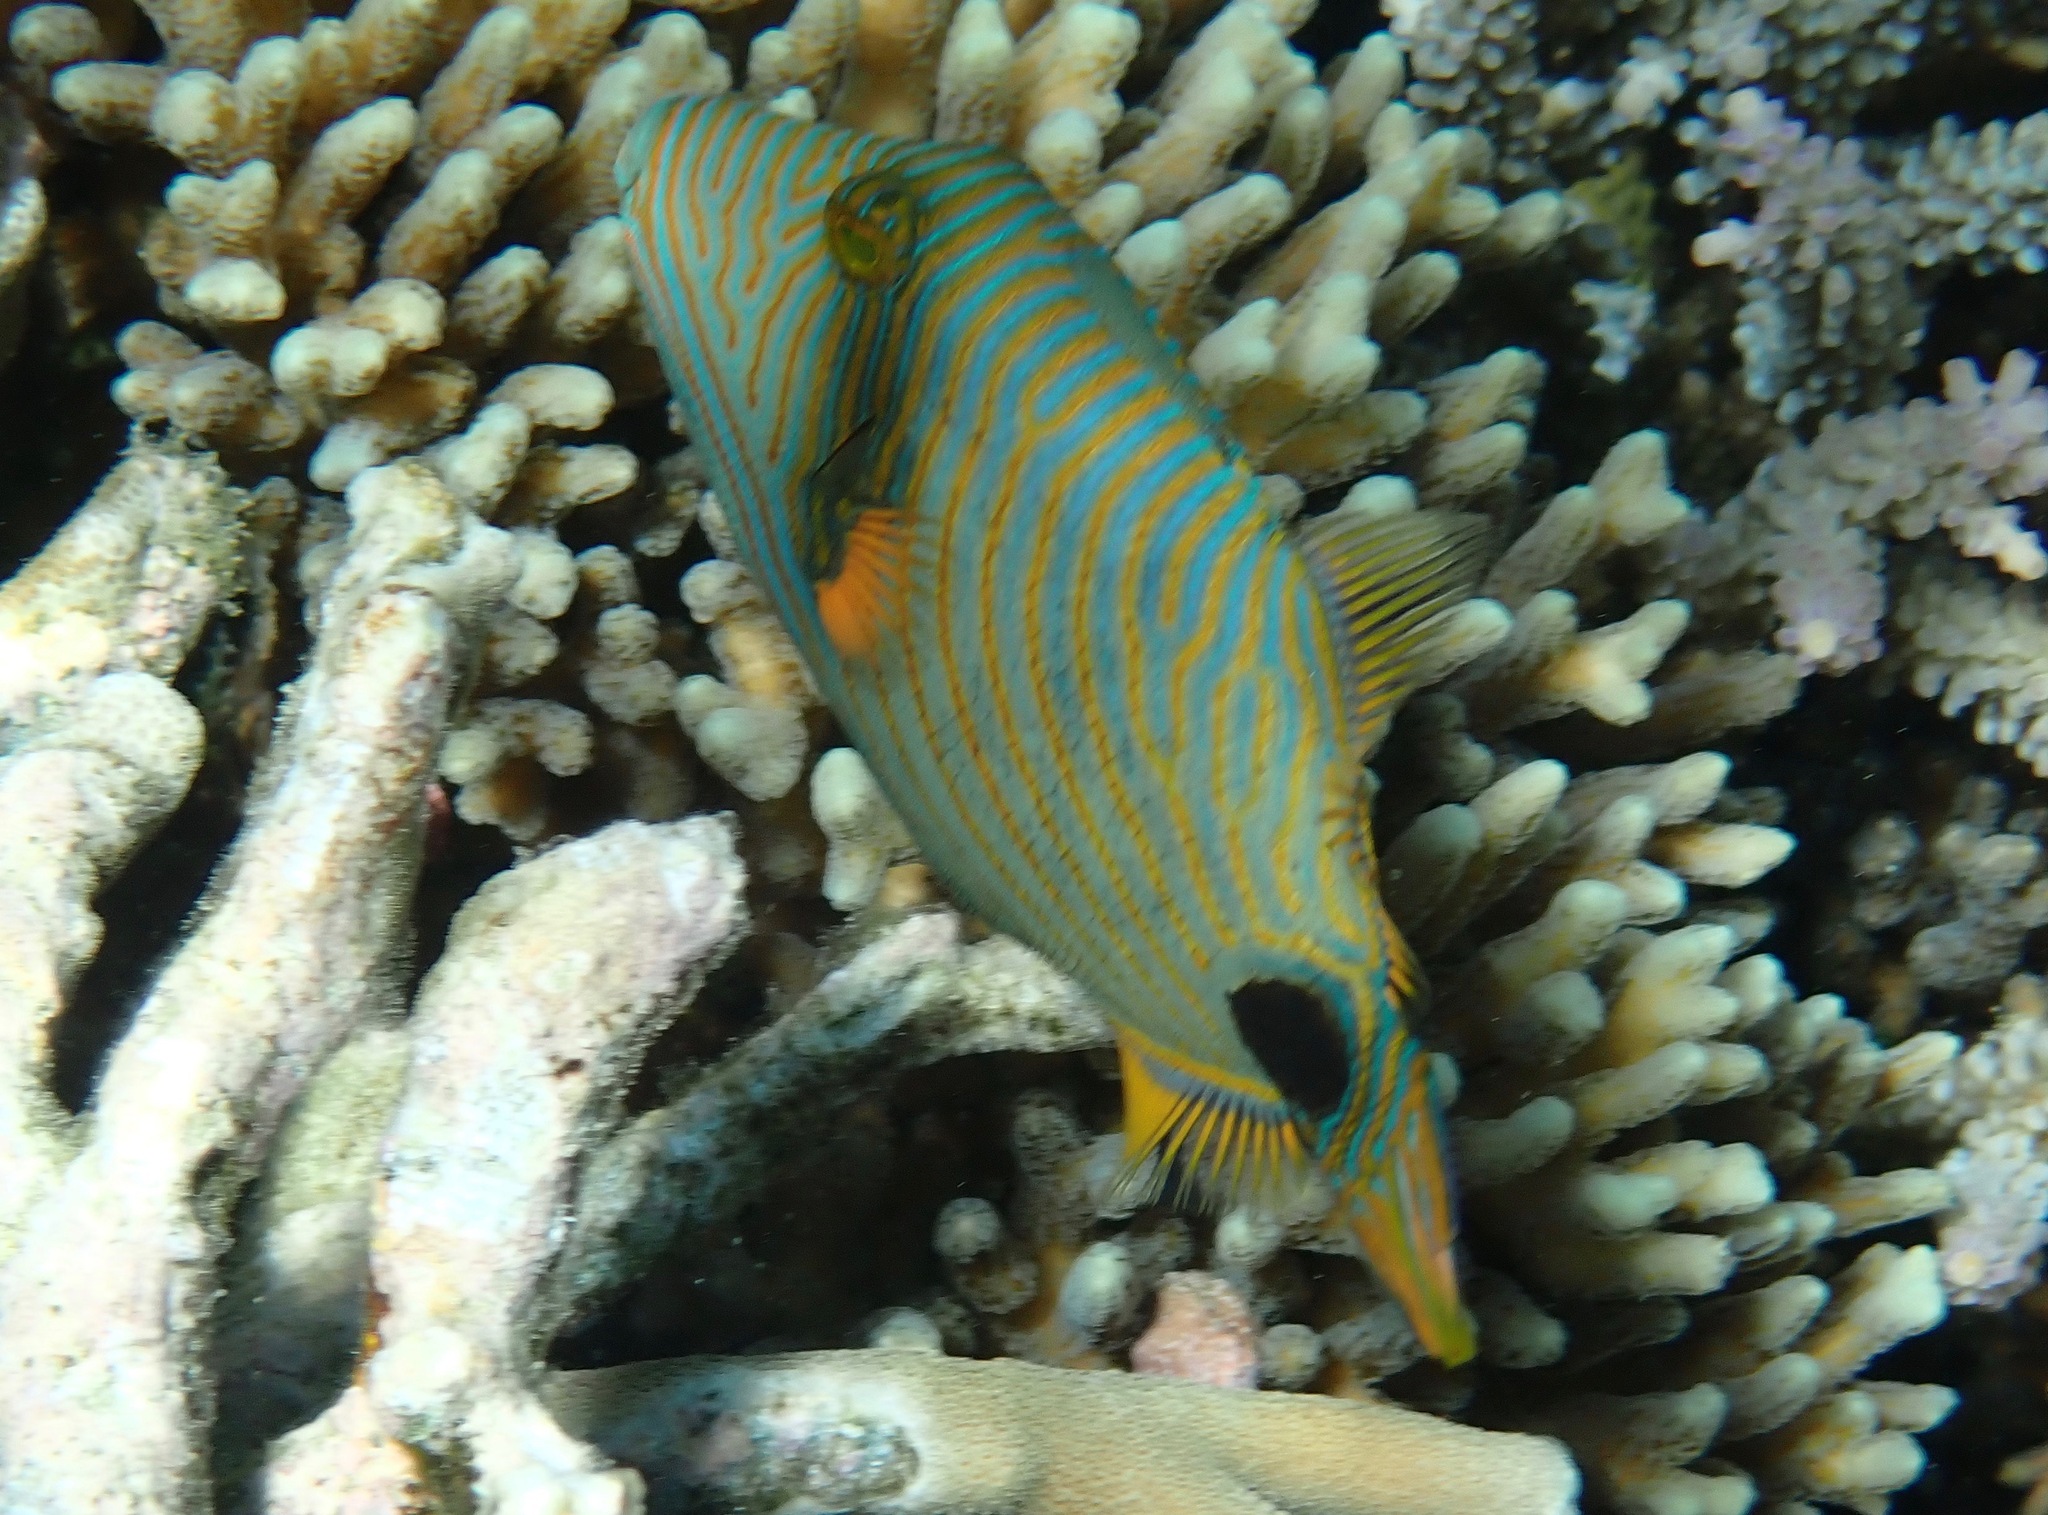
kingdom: Animalia
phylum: Chordata
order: Tetraodontiformes
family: Balistidae
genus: Balistapus
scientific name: Balistapus undulatus
